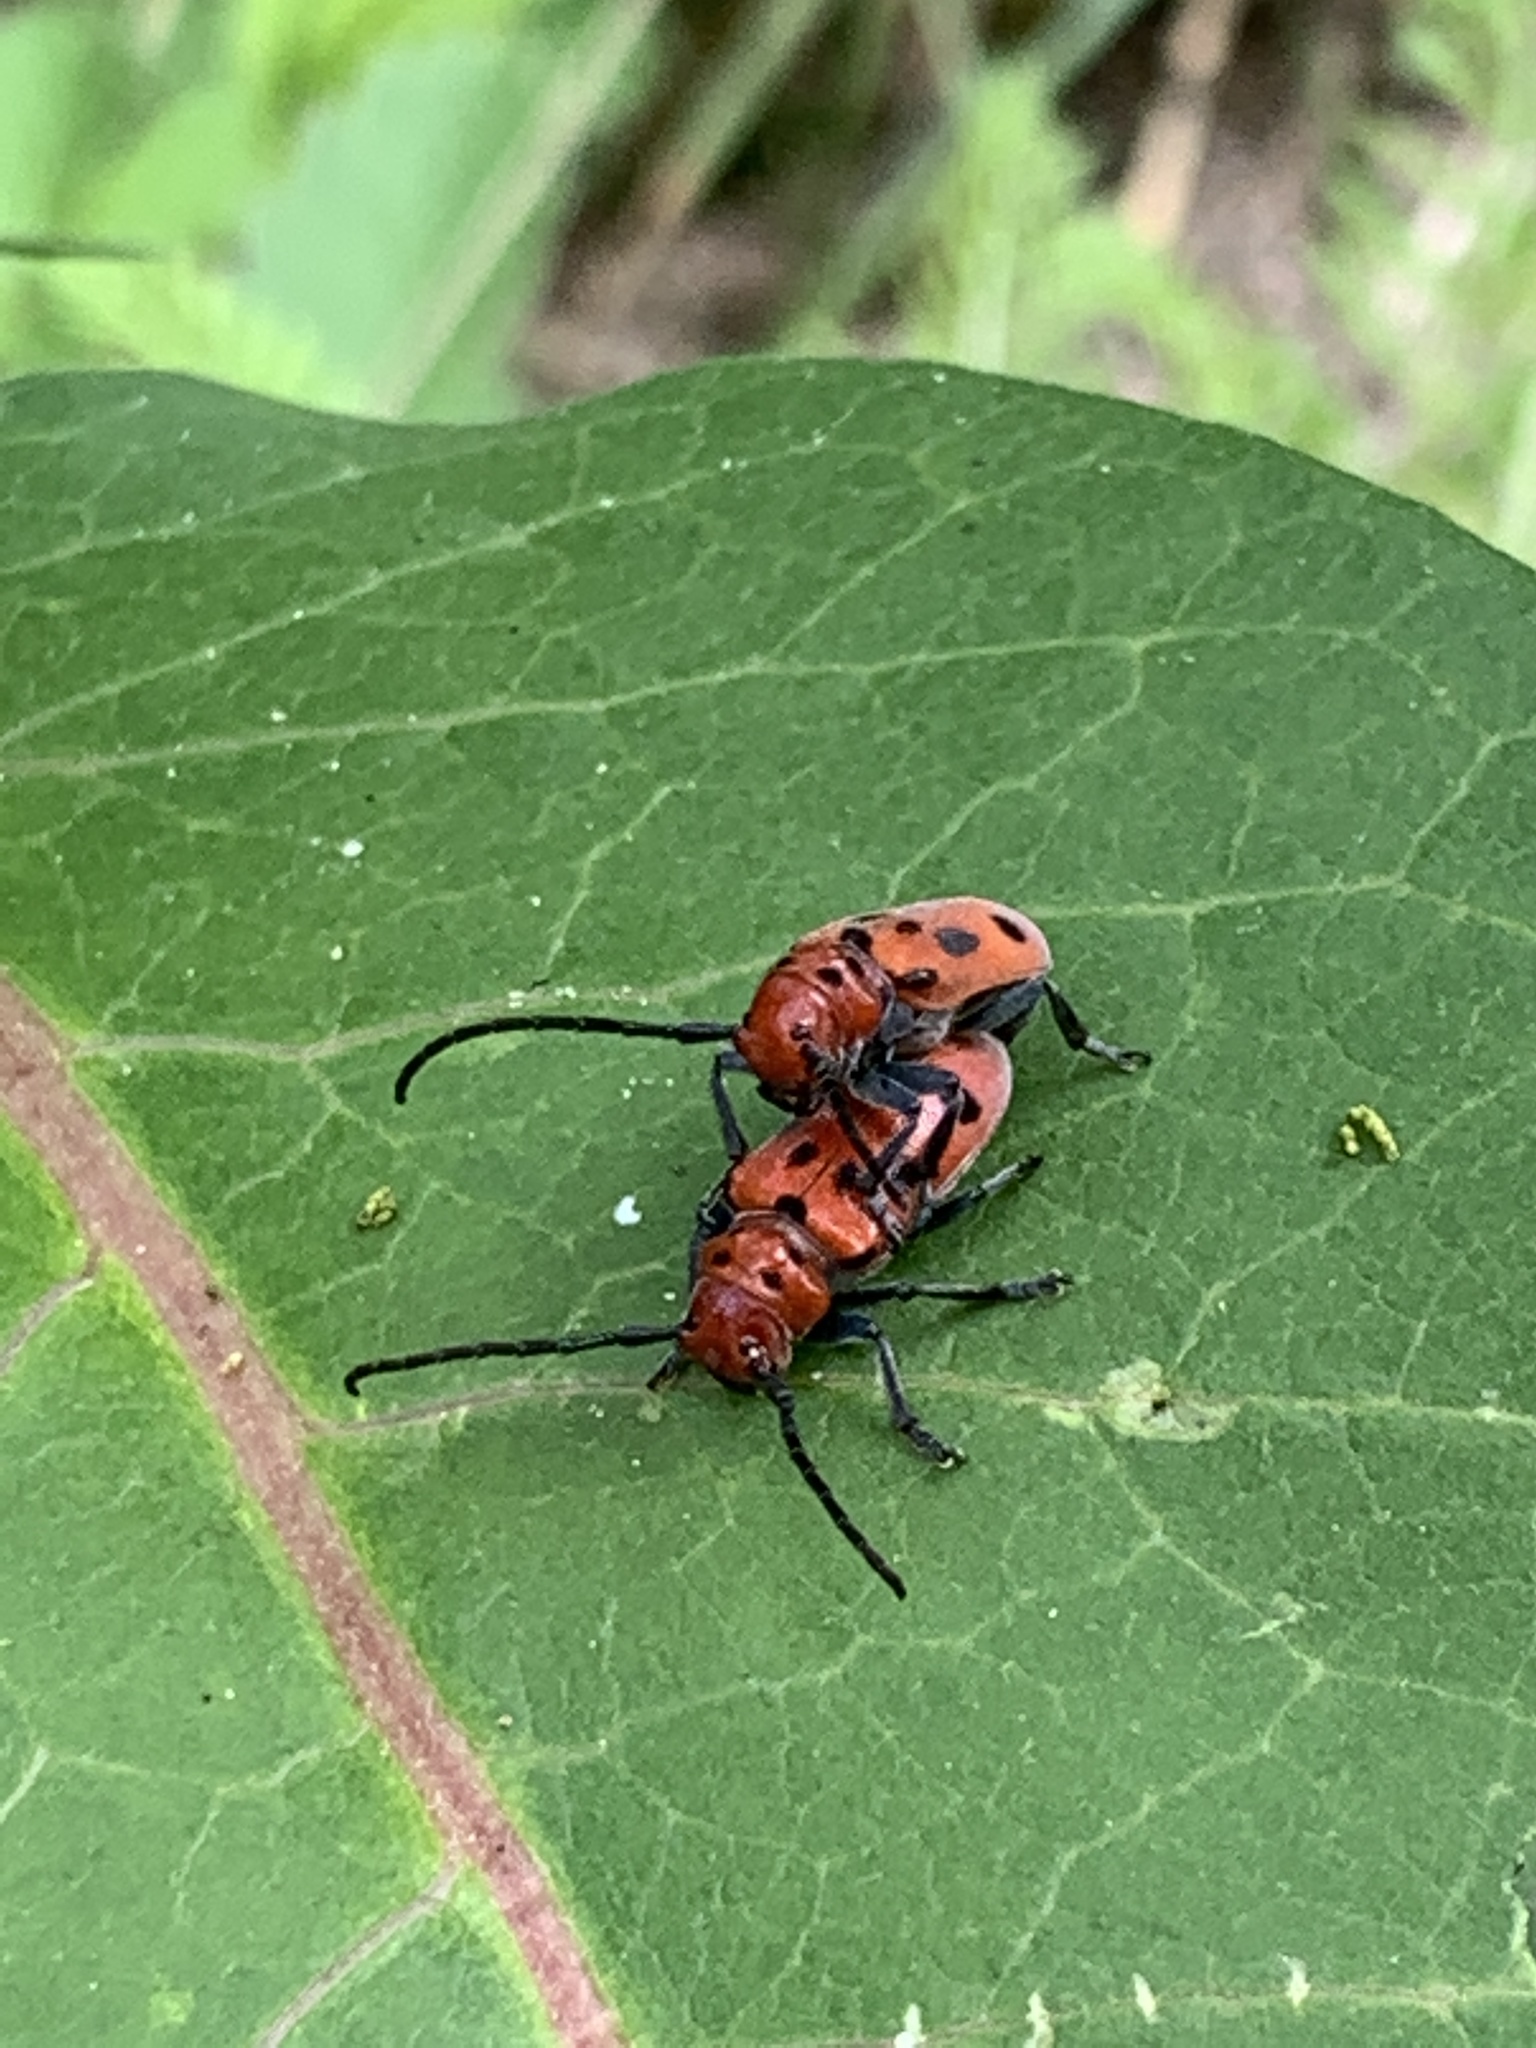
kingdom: Animalia
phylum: Arthropoda
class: Insecta
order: Coleoptera
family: Cerambycidae
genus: Tetraopes
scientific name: Tetraopes tetrophthalmus
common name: Red milkweed beetle
